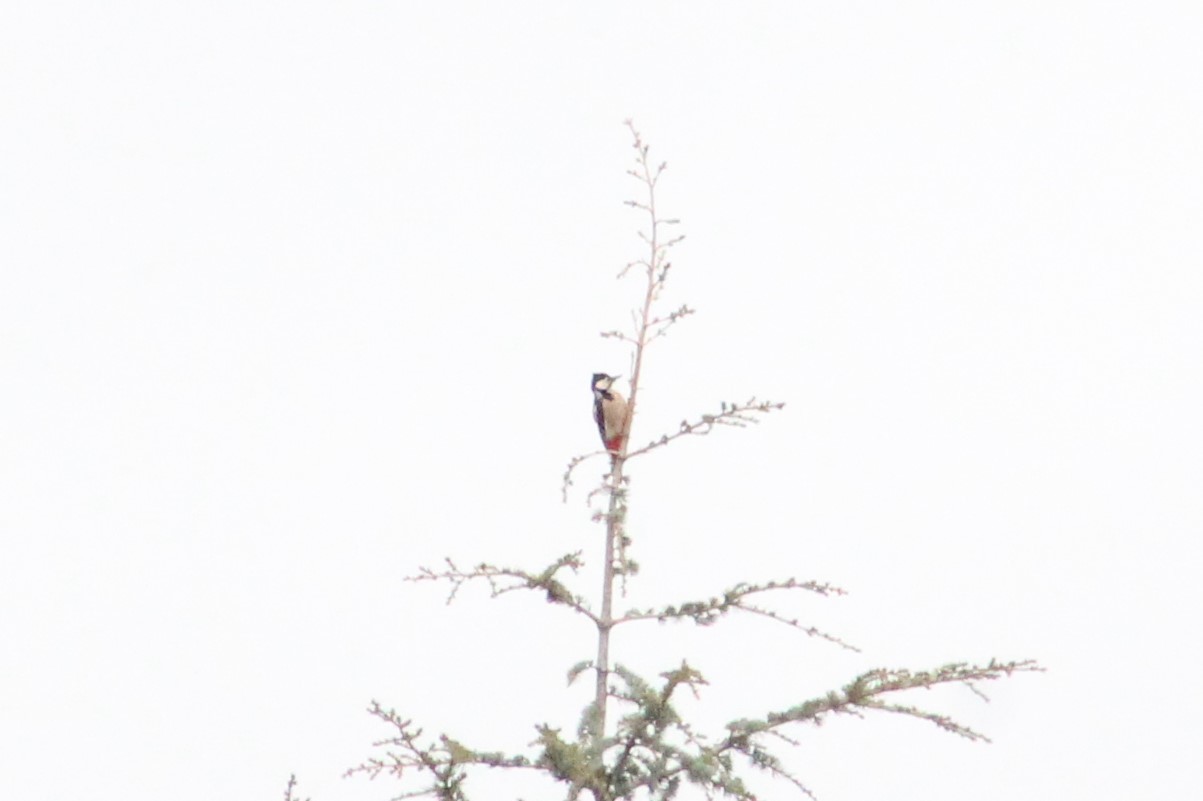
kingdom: Animalia
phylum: Chordata
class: Aves
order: Piciformes
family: Picidae
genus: Dendrocopos
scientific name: Dendrocopos major
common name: Great spotted woodpecker
